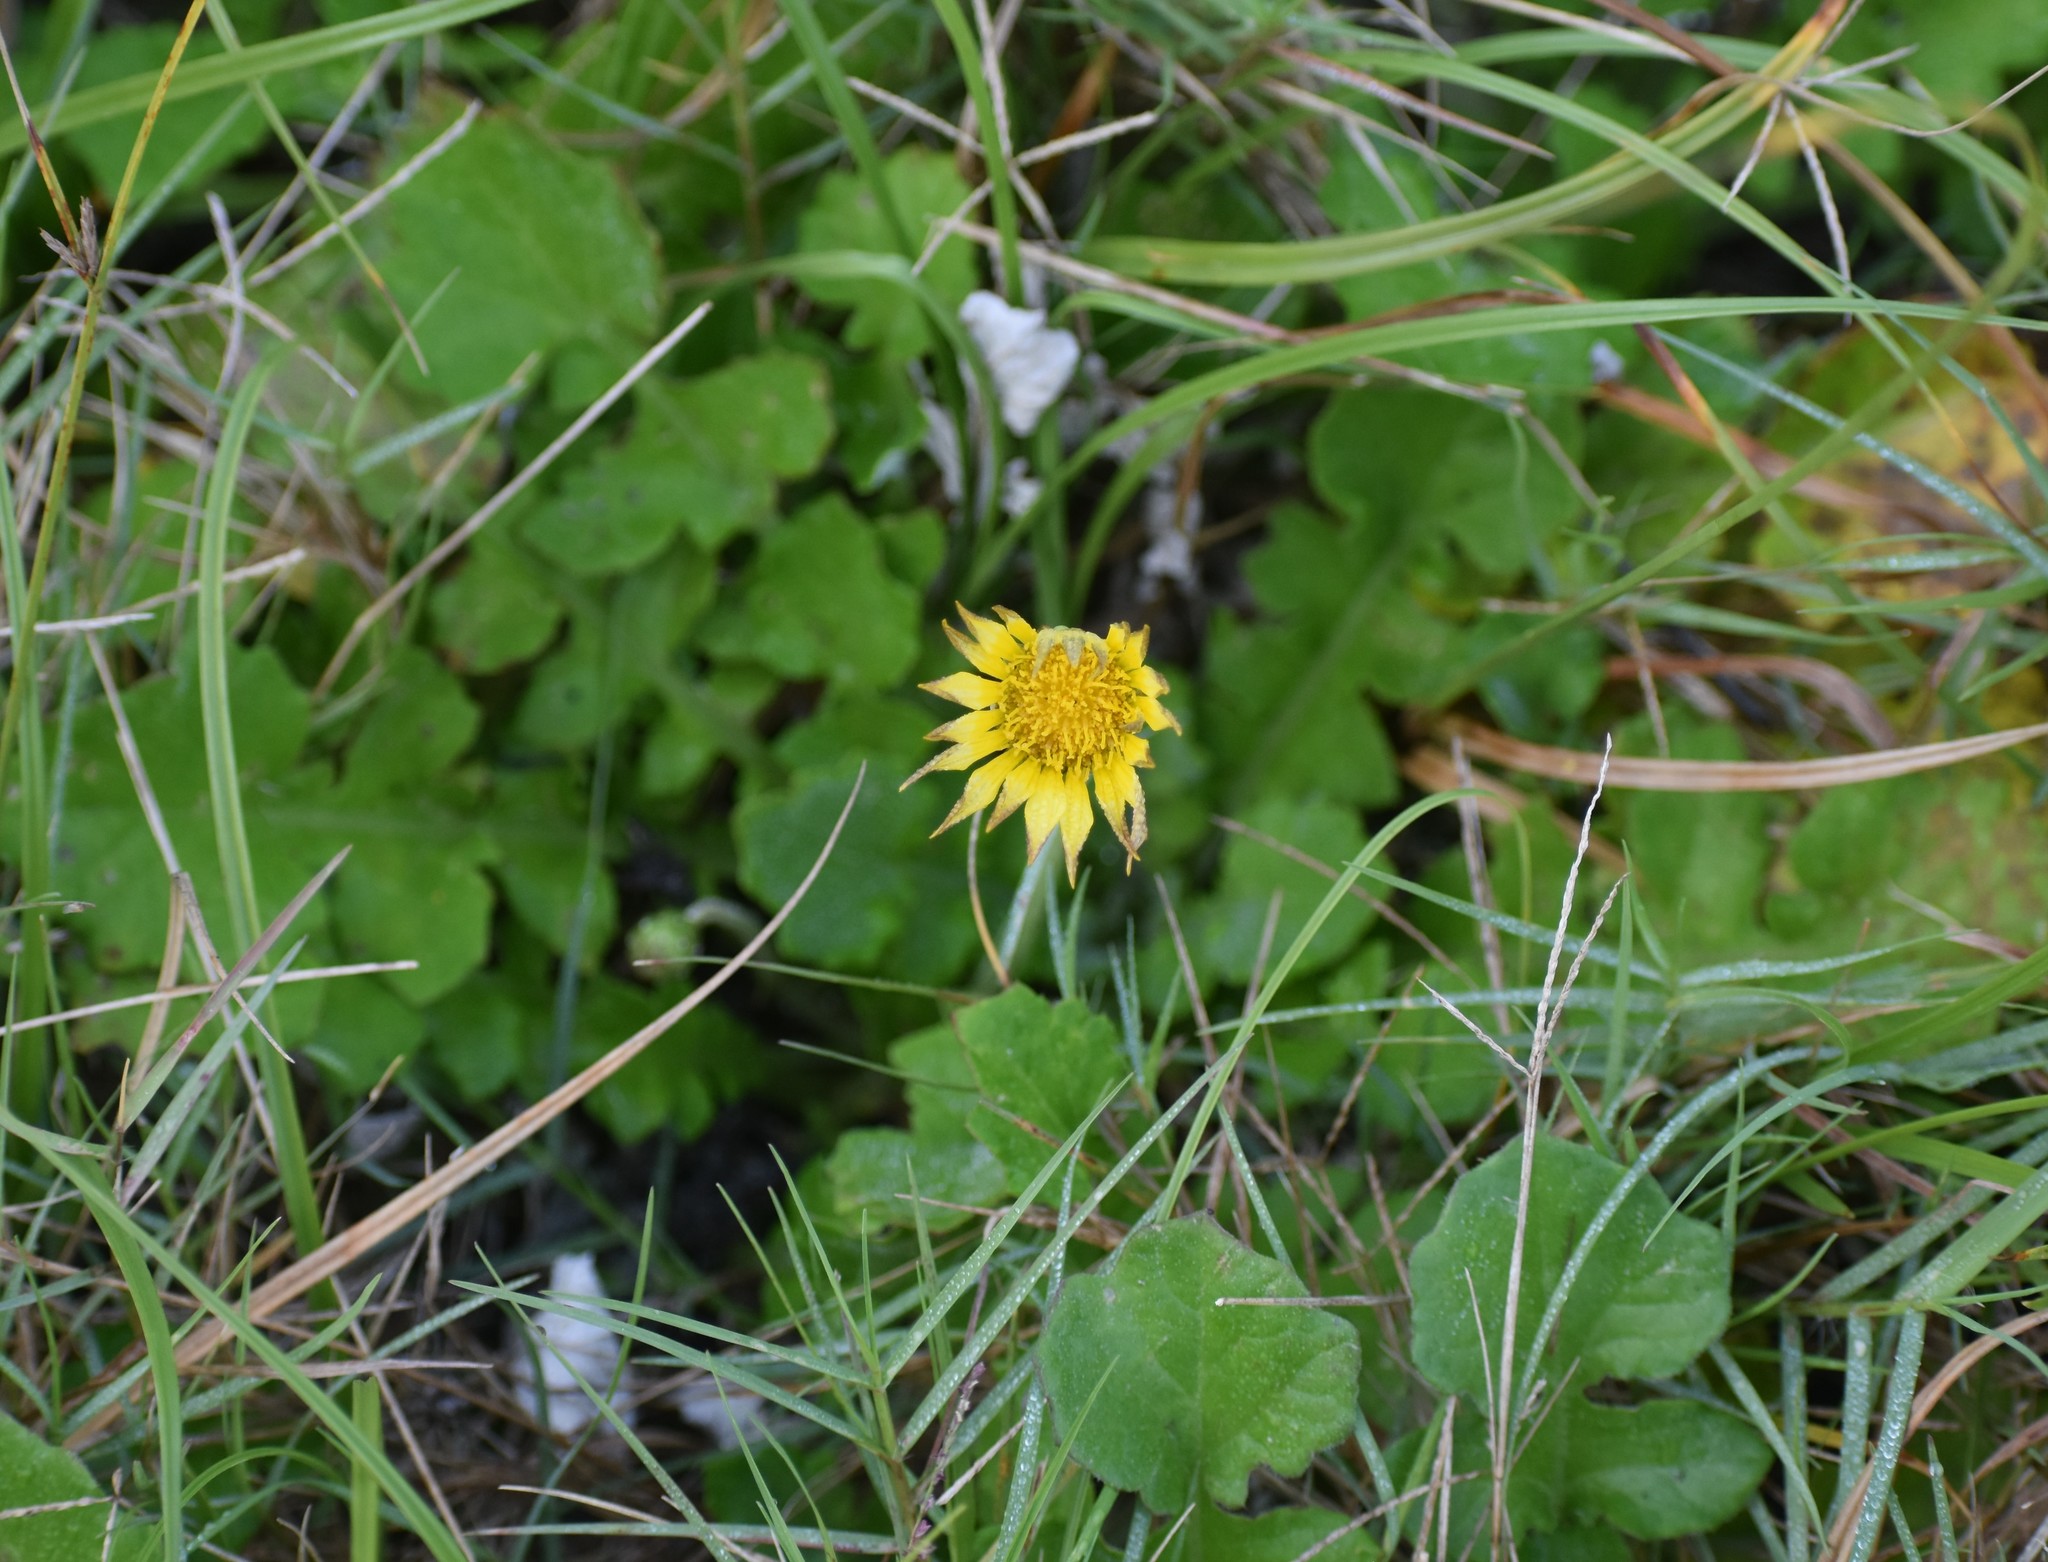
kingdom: Plantae
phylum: Tracheophyta
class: Magnoliopsida
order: Asterales
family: Asteraceae
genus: Arctotheca
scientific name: Arctotheca prostrata
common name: Capeweed
